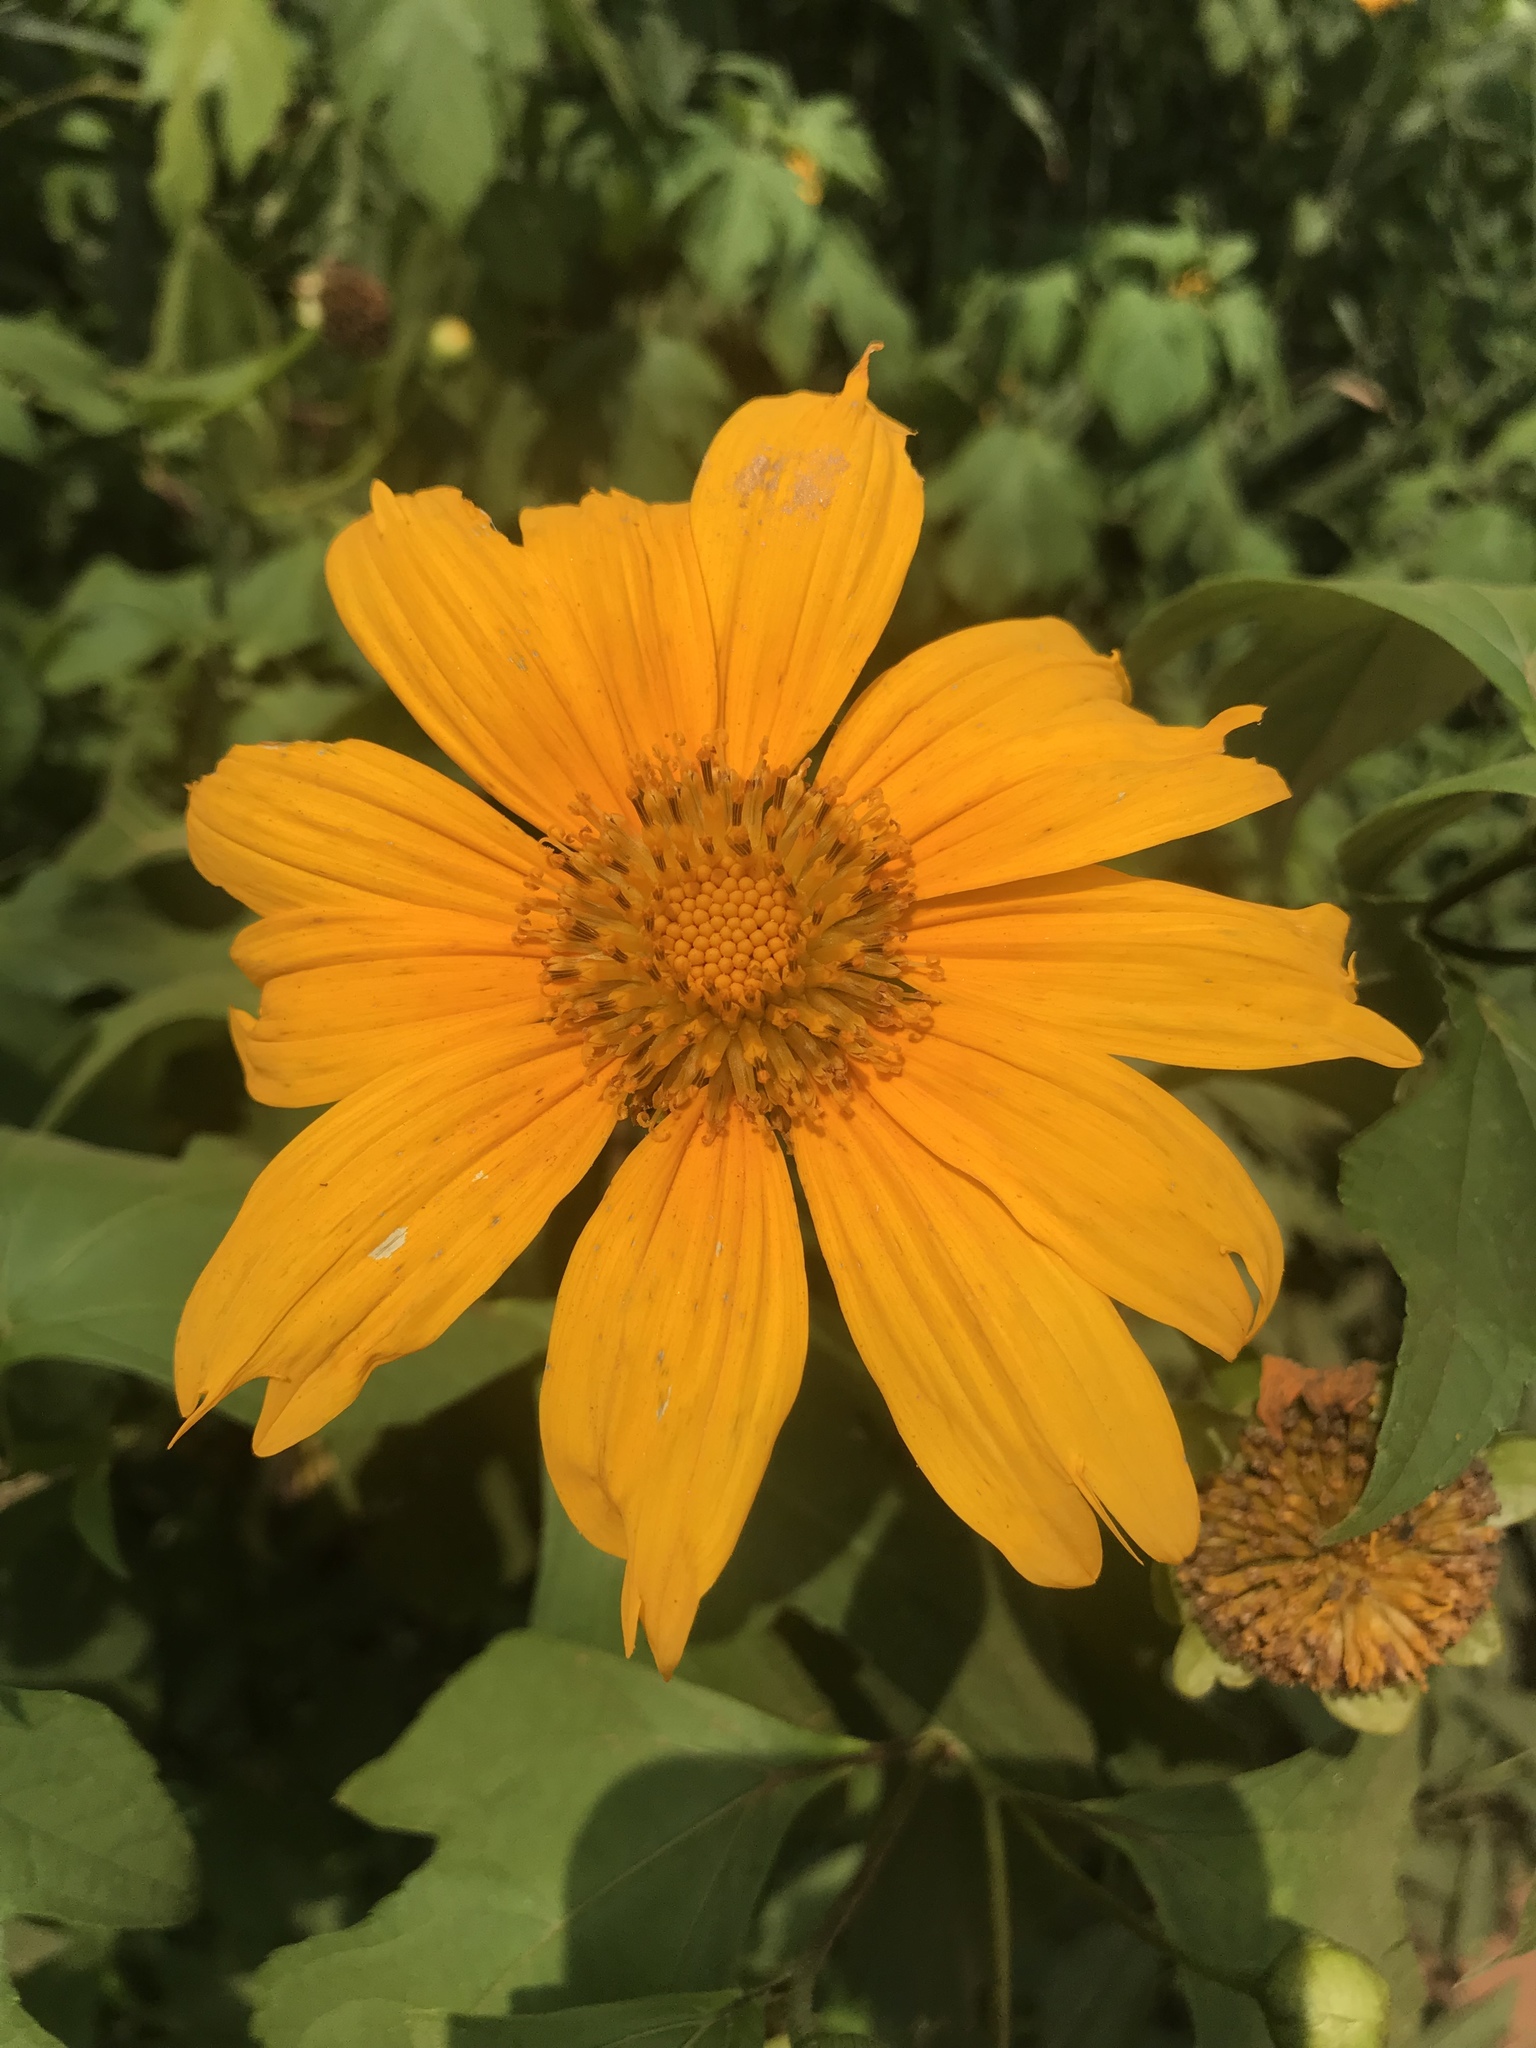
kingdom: Plantae
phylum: Tracheophyta
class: Magnoliopsida
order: Asterales
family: Asteraceae
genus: Tithonia
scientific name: Tithonia diversifolia
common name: Tree marigold
